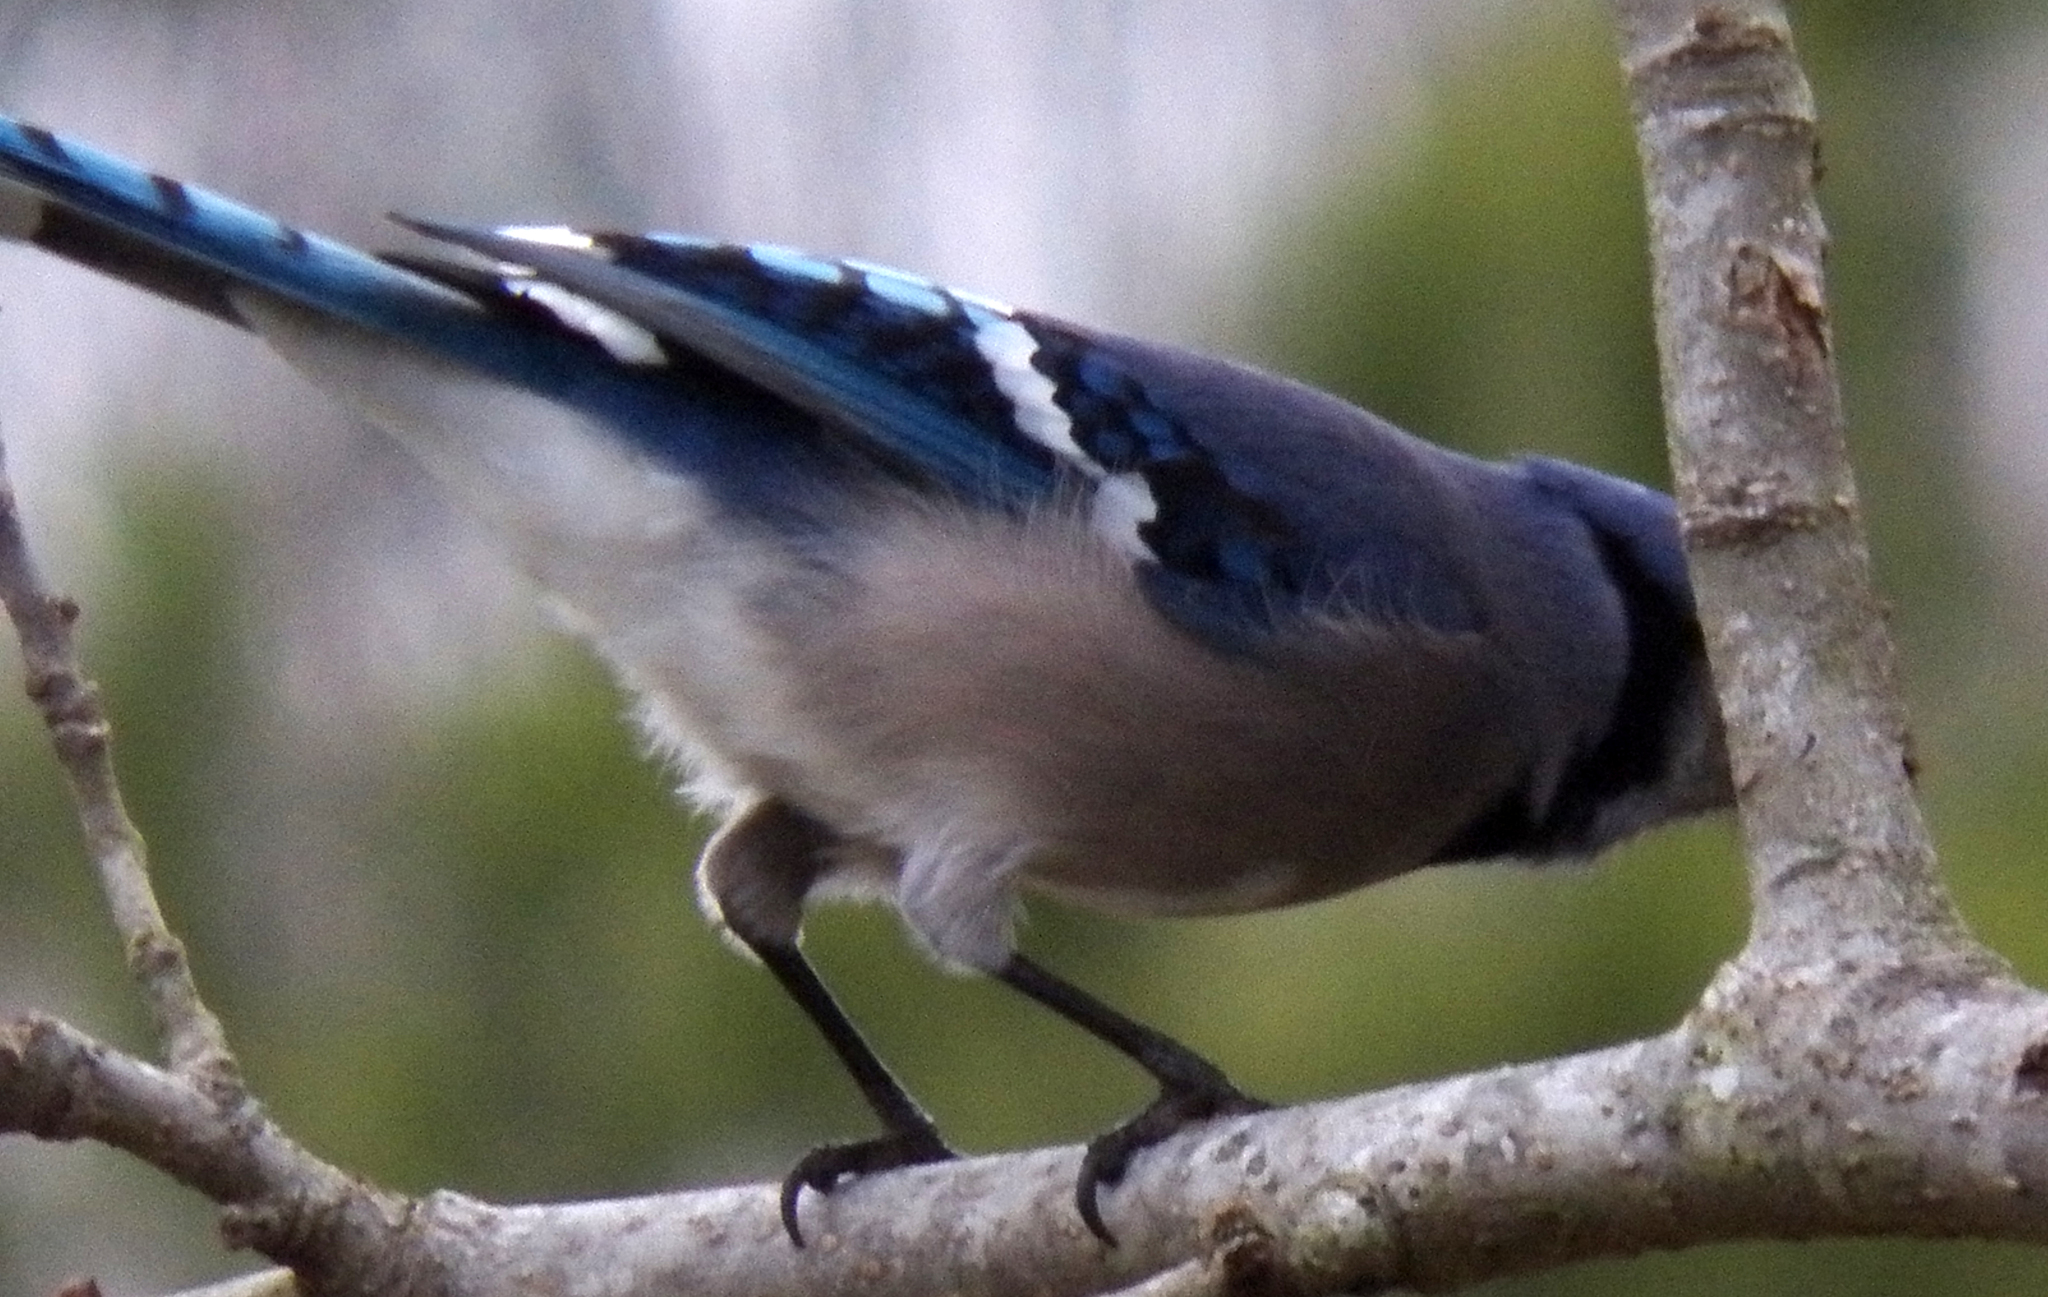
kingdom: Animalia
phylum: Chordata
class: Aves
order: Passeriformes
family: Corvidae
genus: Cyanocitta
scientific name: Cyanocitta cristata
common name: Blue jay
